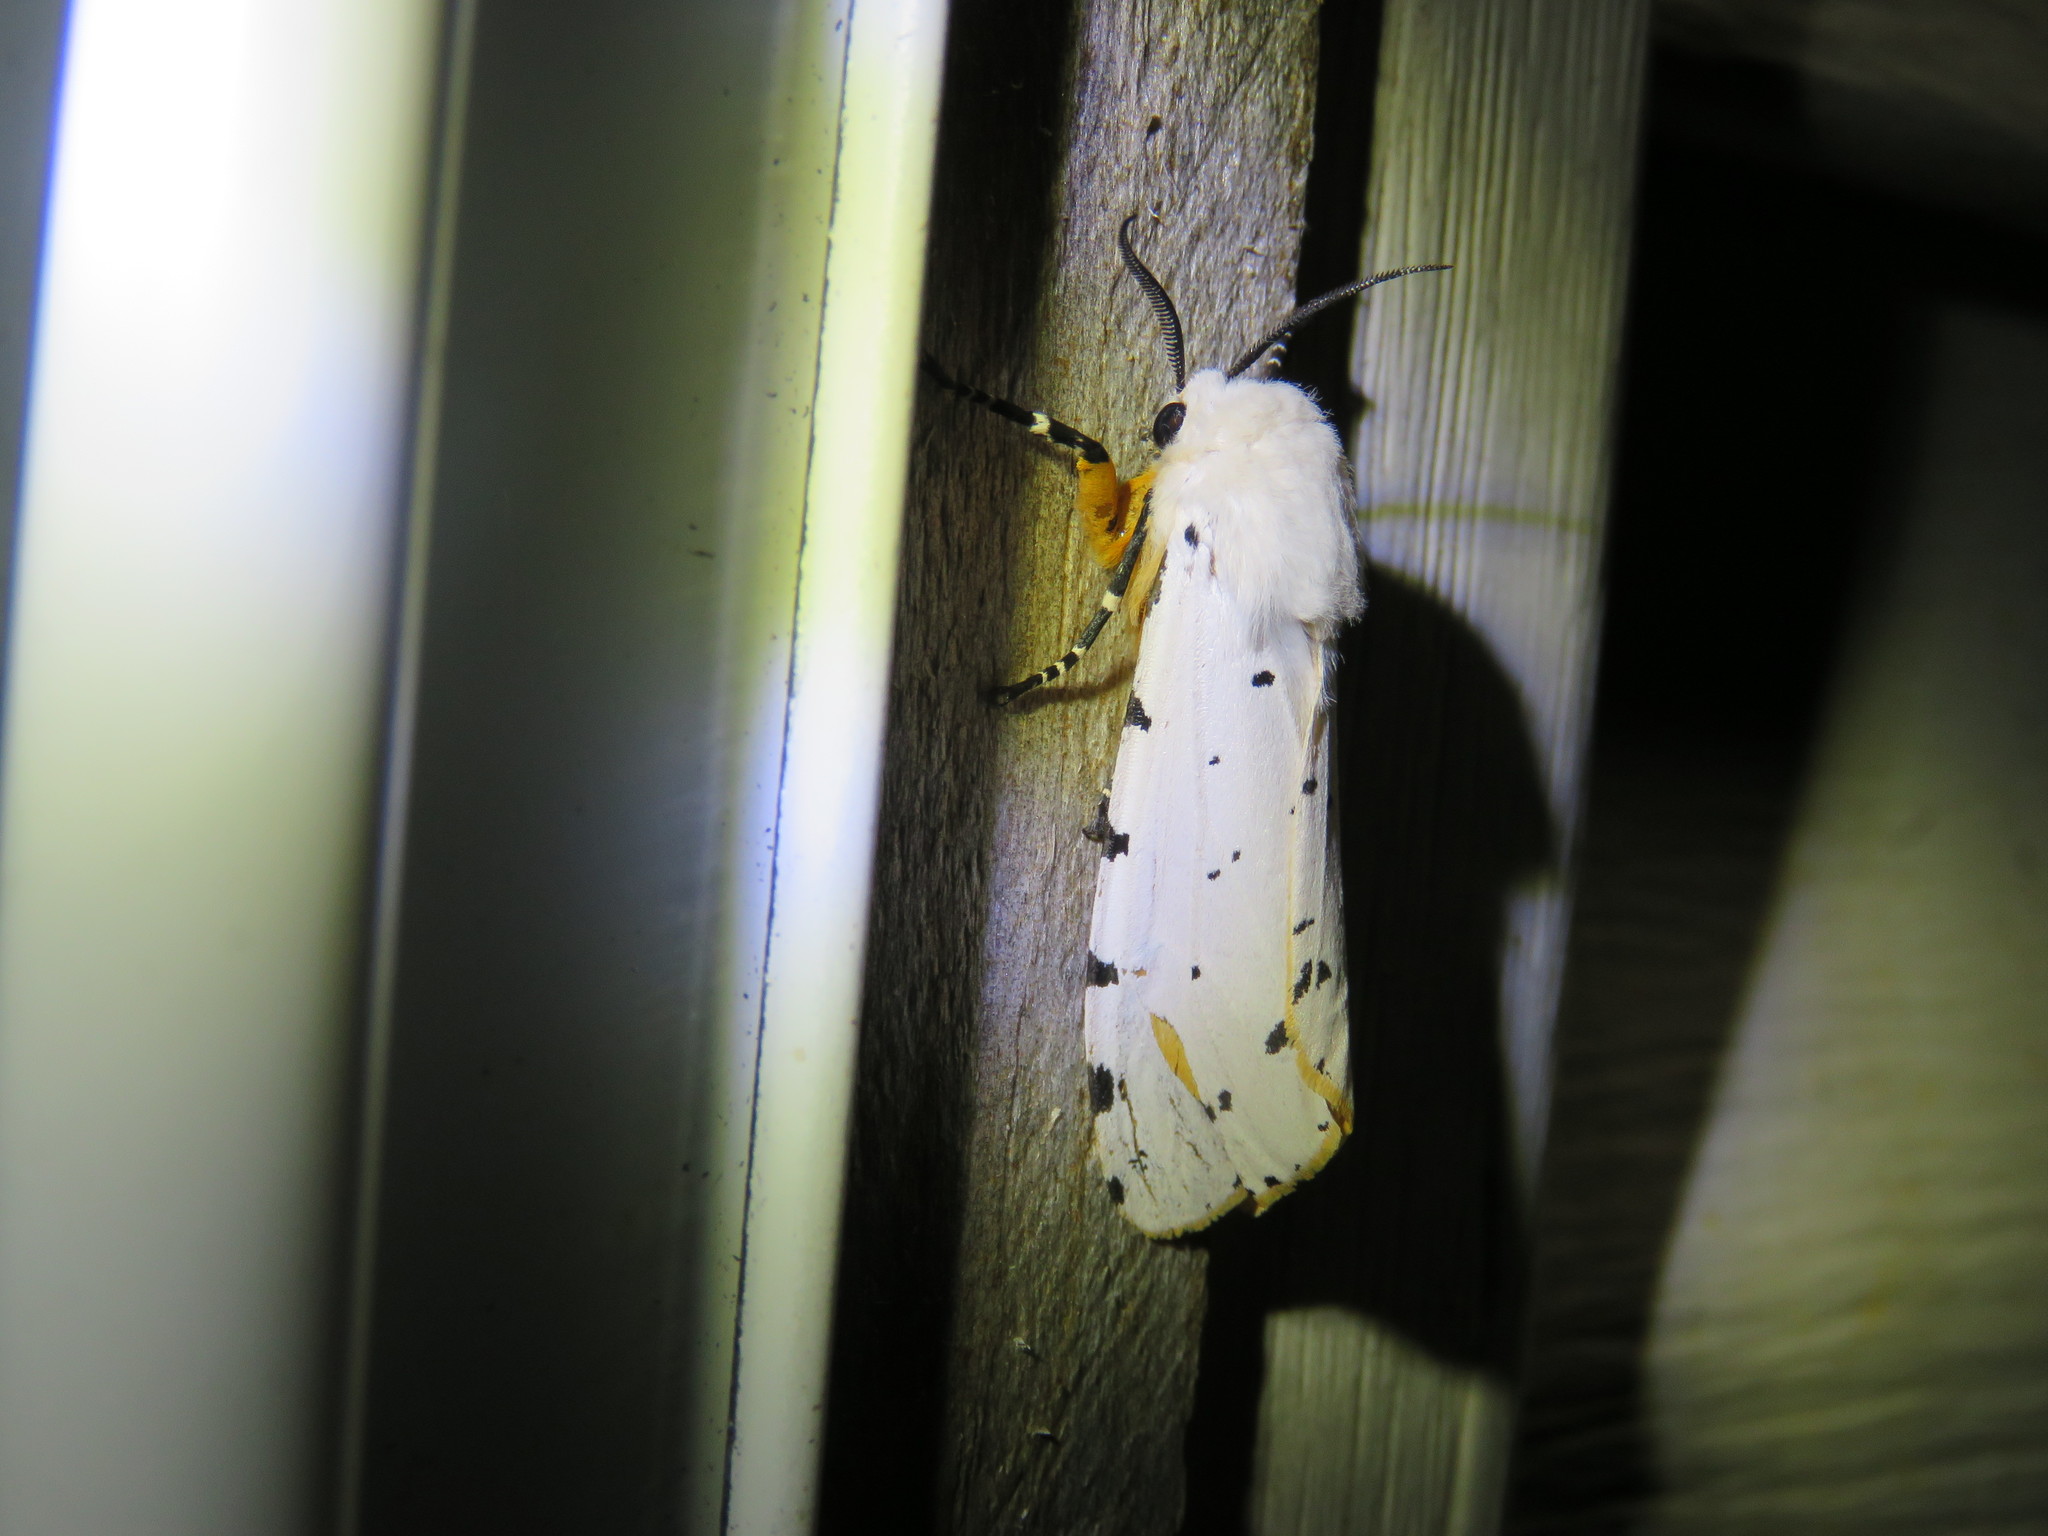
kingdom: Animalia
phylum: Arthropoda
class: Insecta
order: Lepidoptera
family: Erebidae
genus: Estigmene
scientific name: Estigmene acrea
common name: Salt marsh moth
